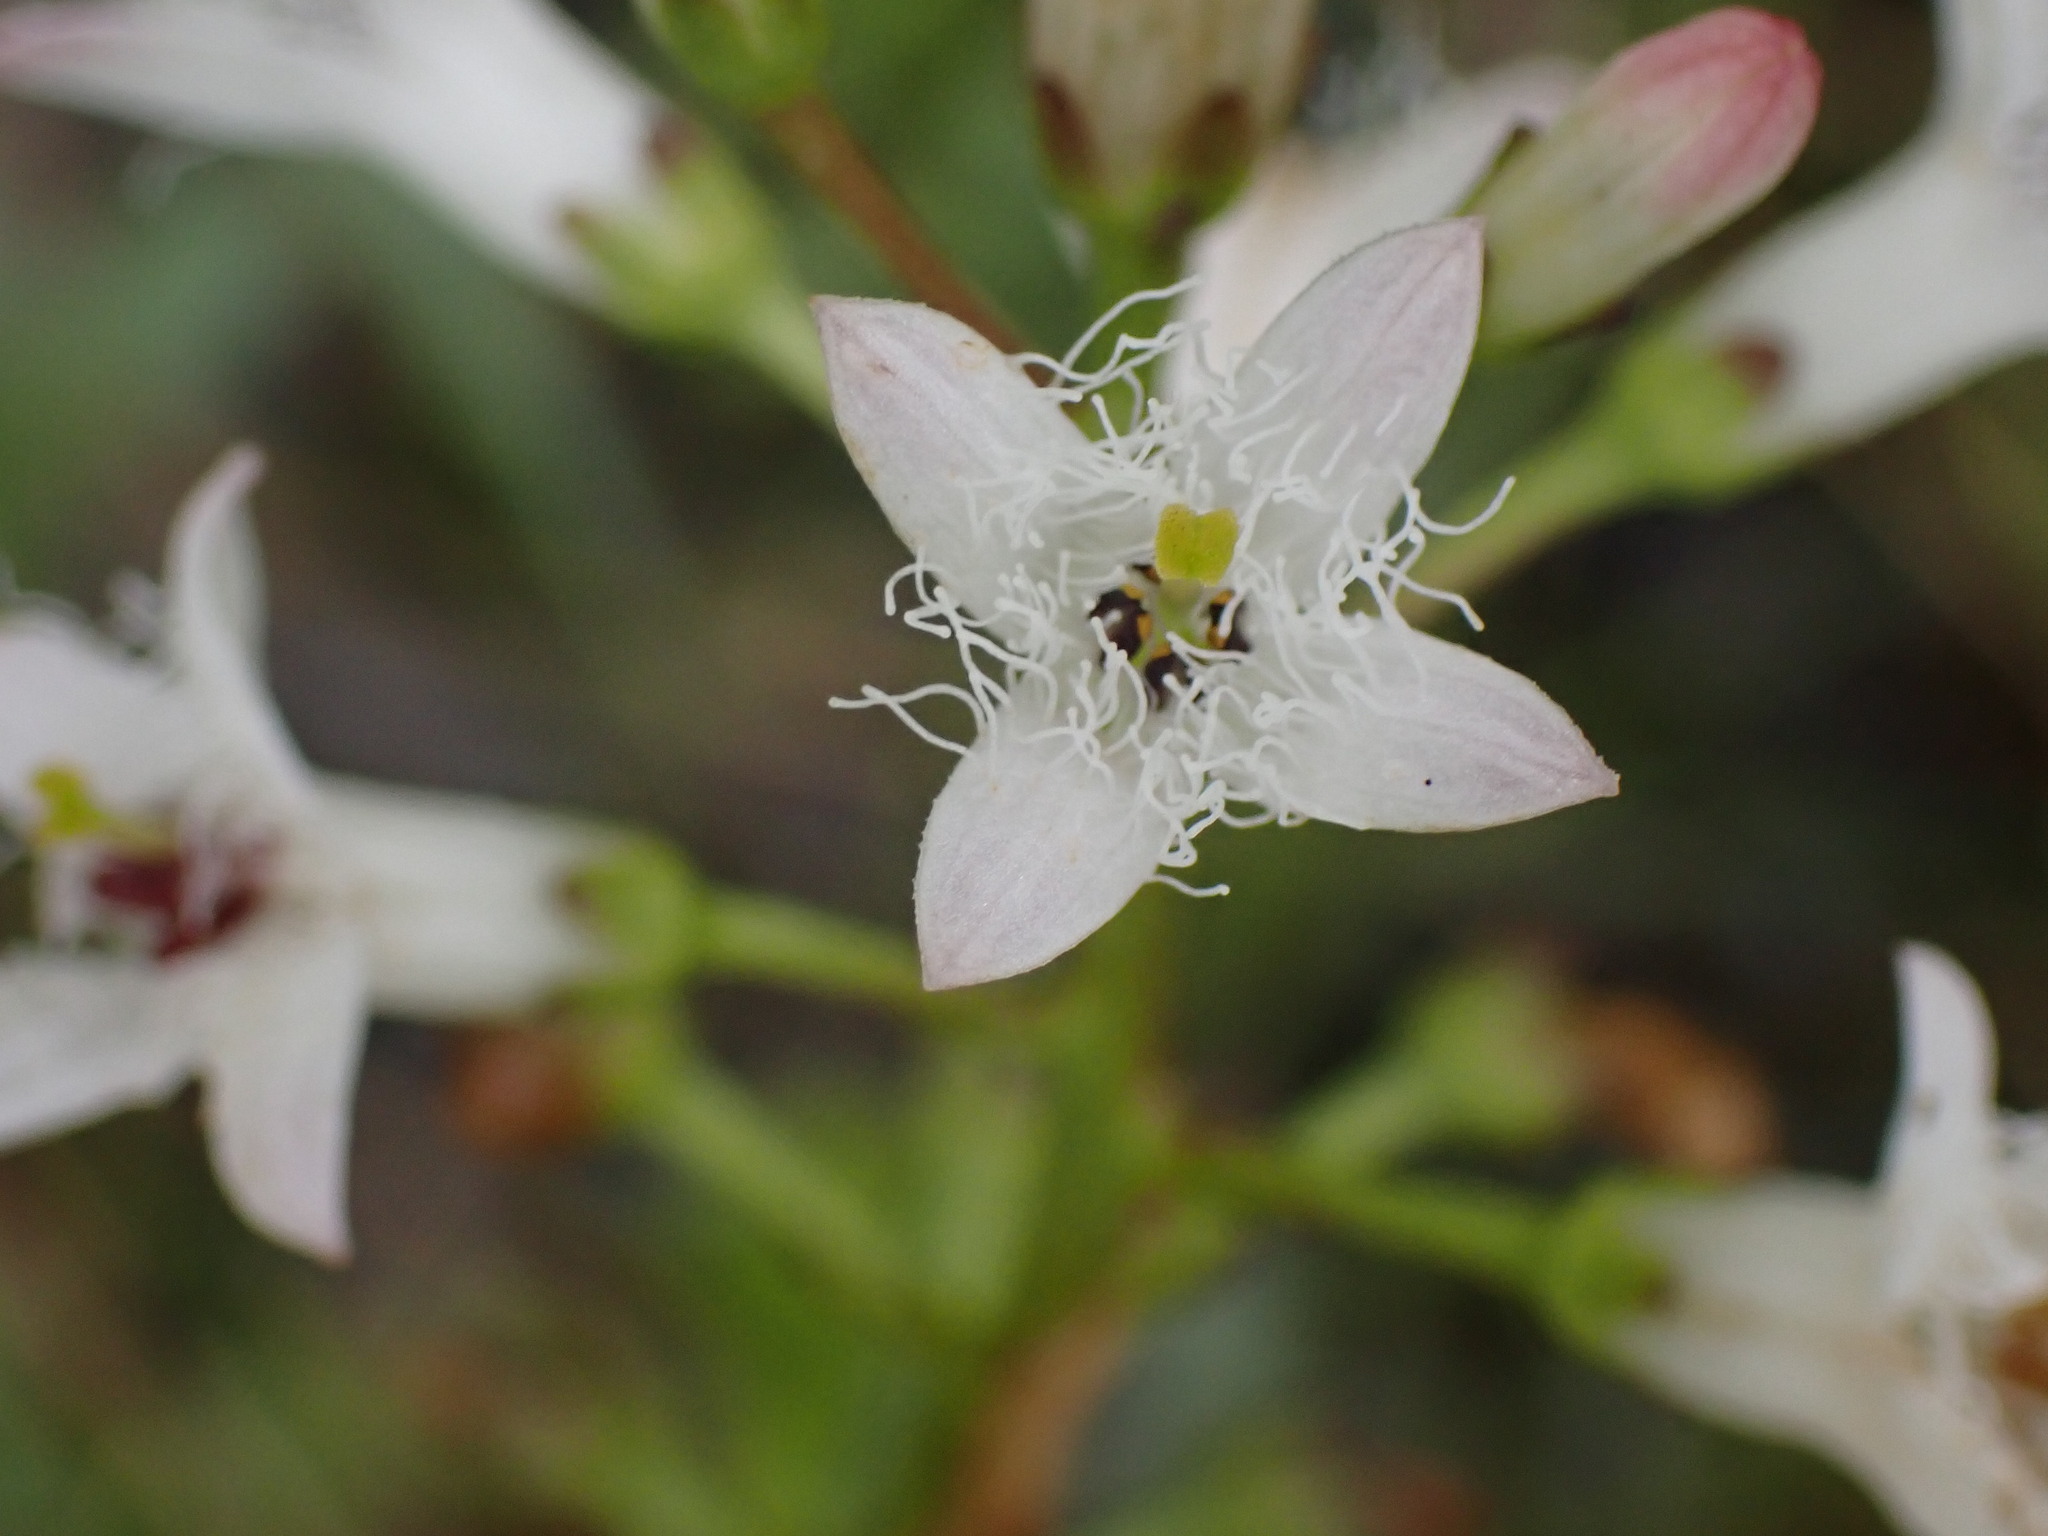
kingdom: Plantae
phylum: Tracheophyta
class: Magnoliopsida
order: Asterales
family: Menyanthaceae
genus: Menyanthes
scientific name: Menyanthes trifoliata
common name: Bogbean
